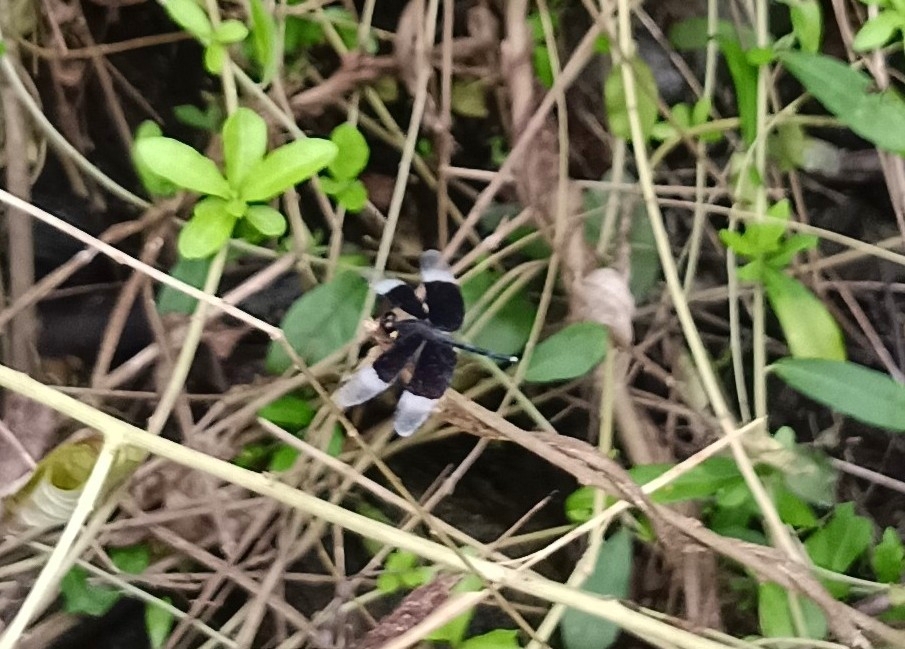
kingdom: Animalia
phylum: Arthropoda
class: Insecta
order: Odonata
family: Libellulidae
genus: Neurothemis
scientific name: Neurothemis tullia
